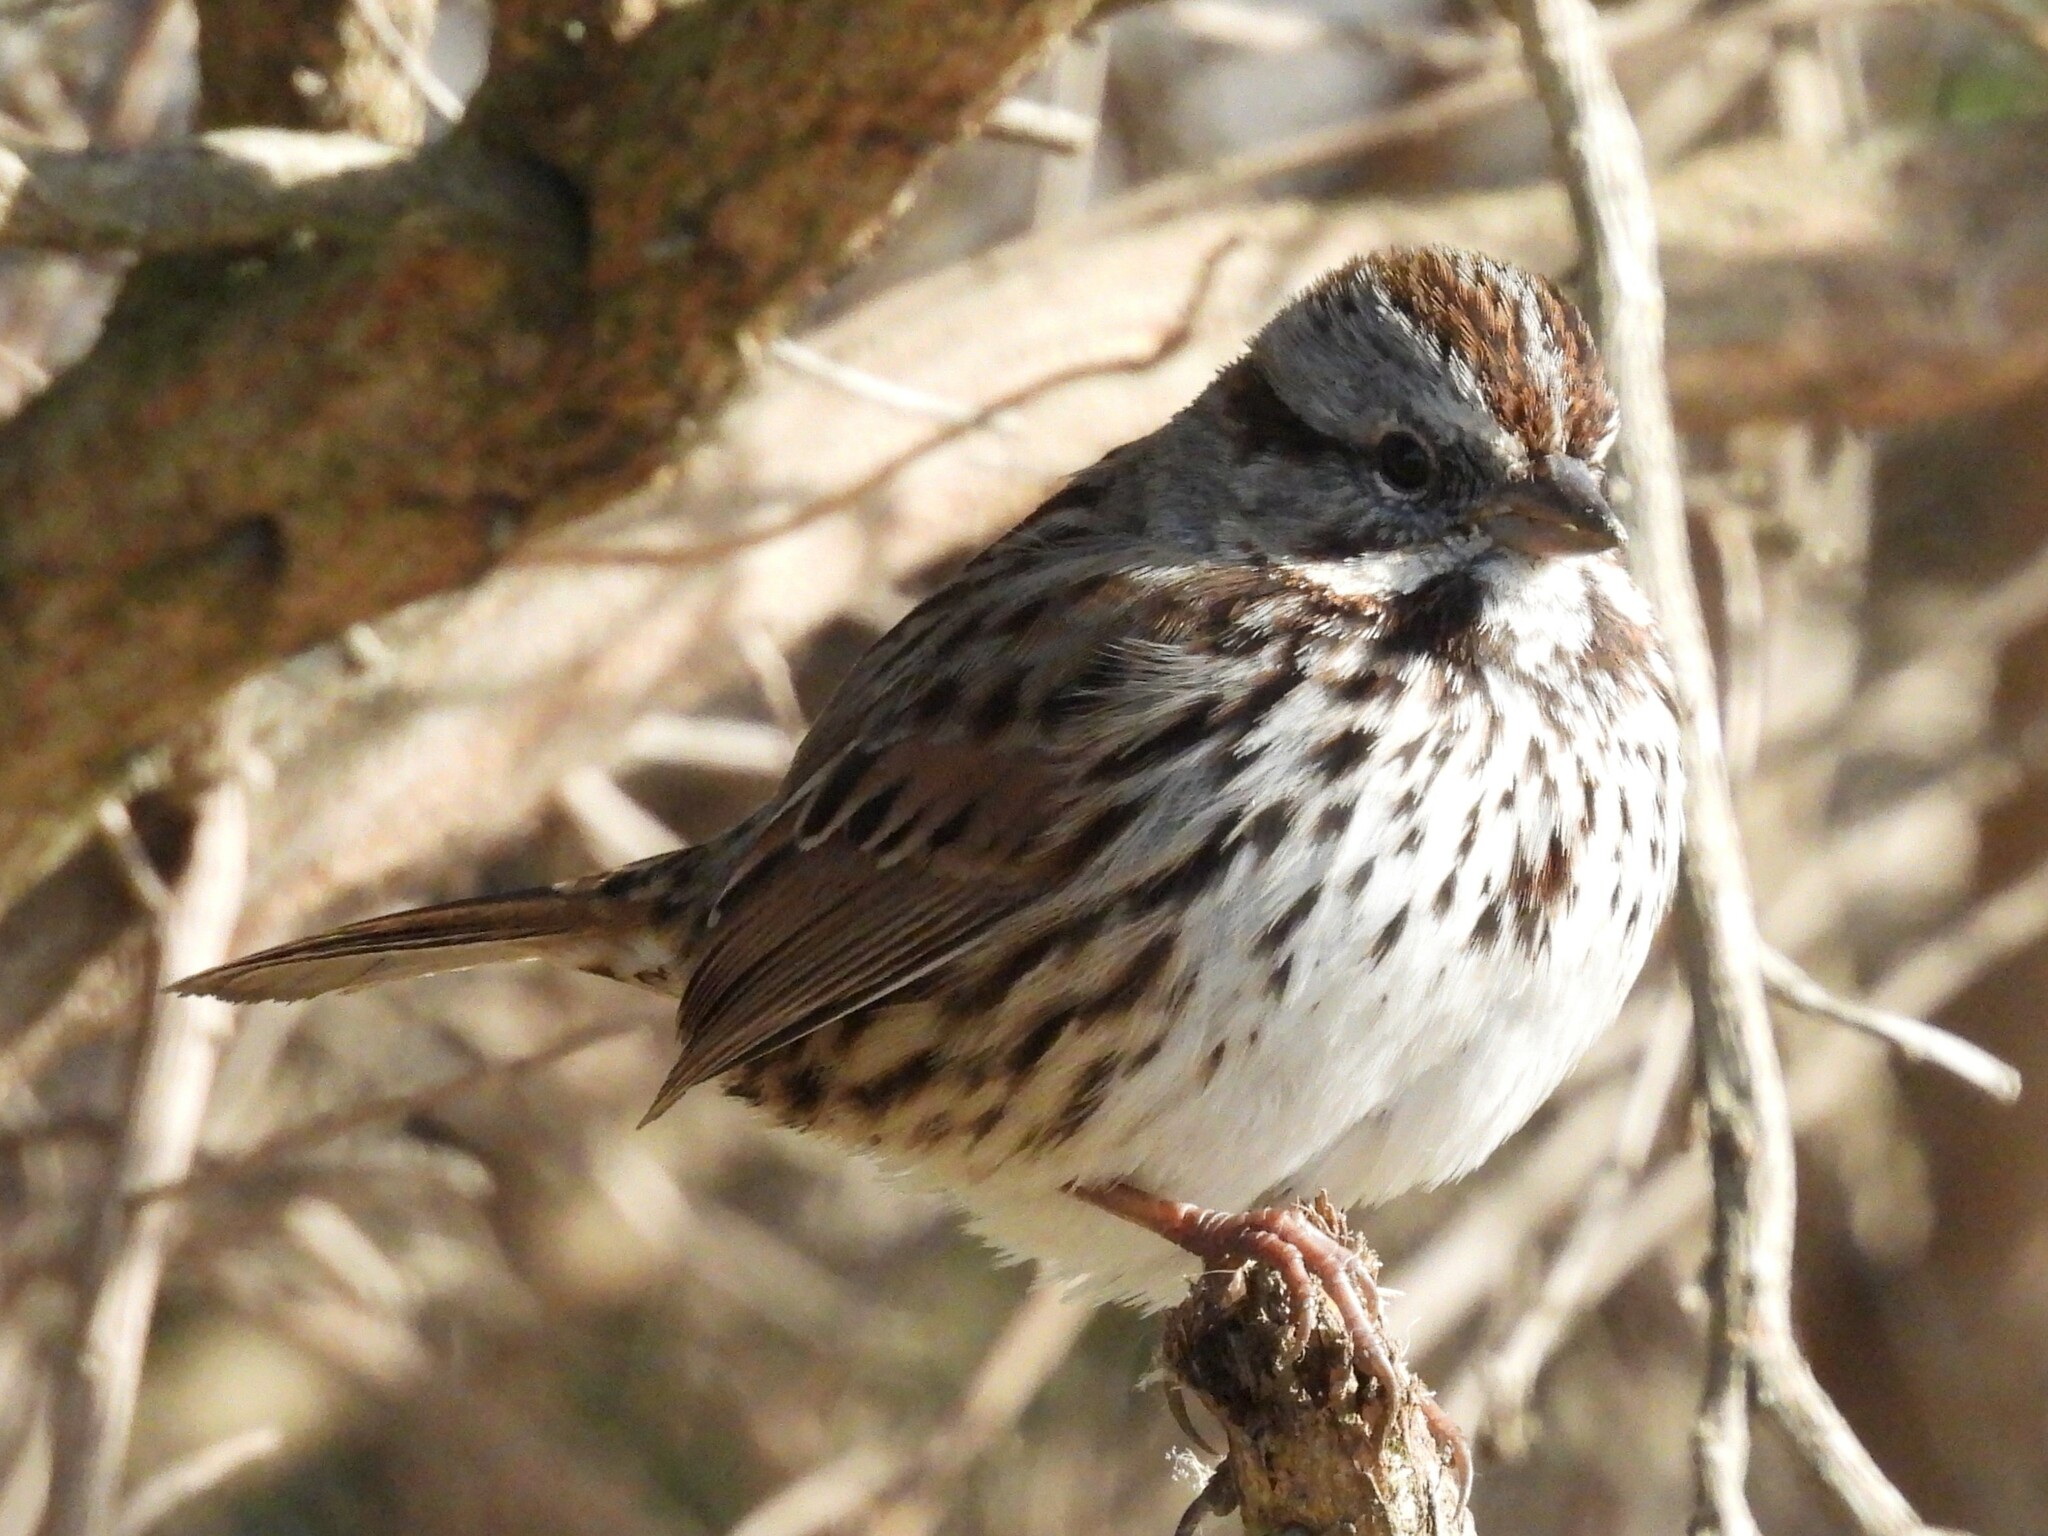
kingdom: Animalia
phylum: Chordata
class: Aves
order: Passeriformes
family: Passerellidae
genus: Melospiza
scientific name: Melospiza melodia
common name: Song sparrow
